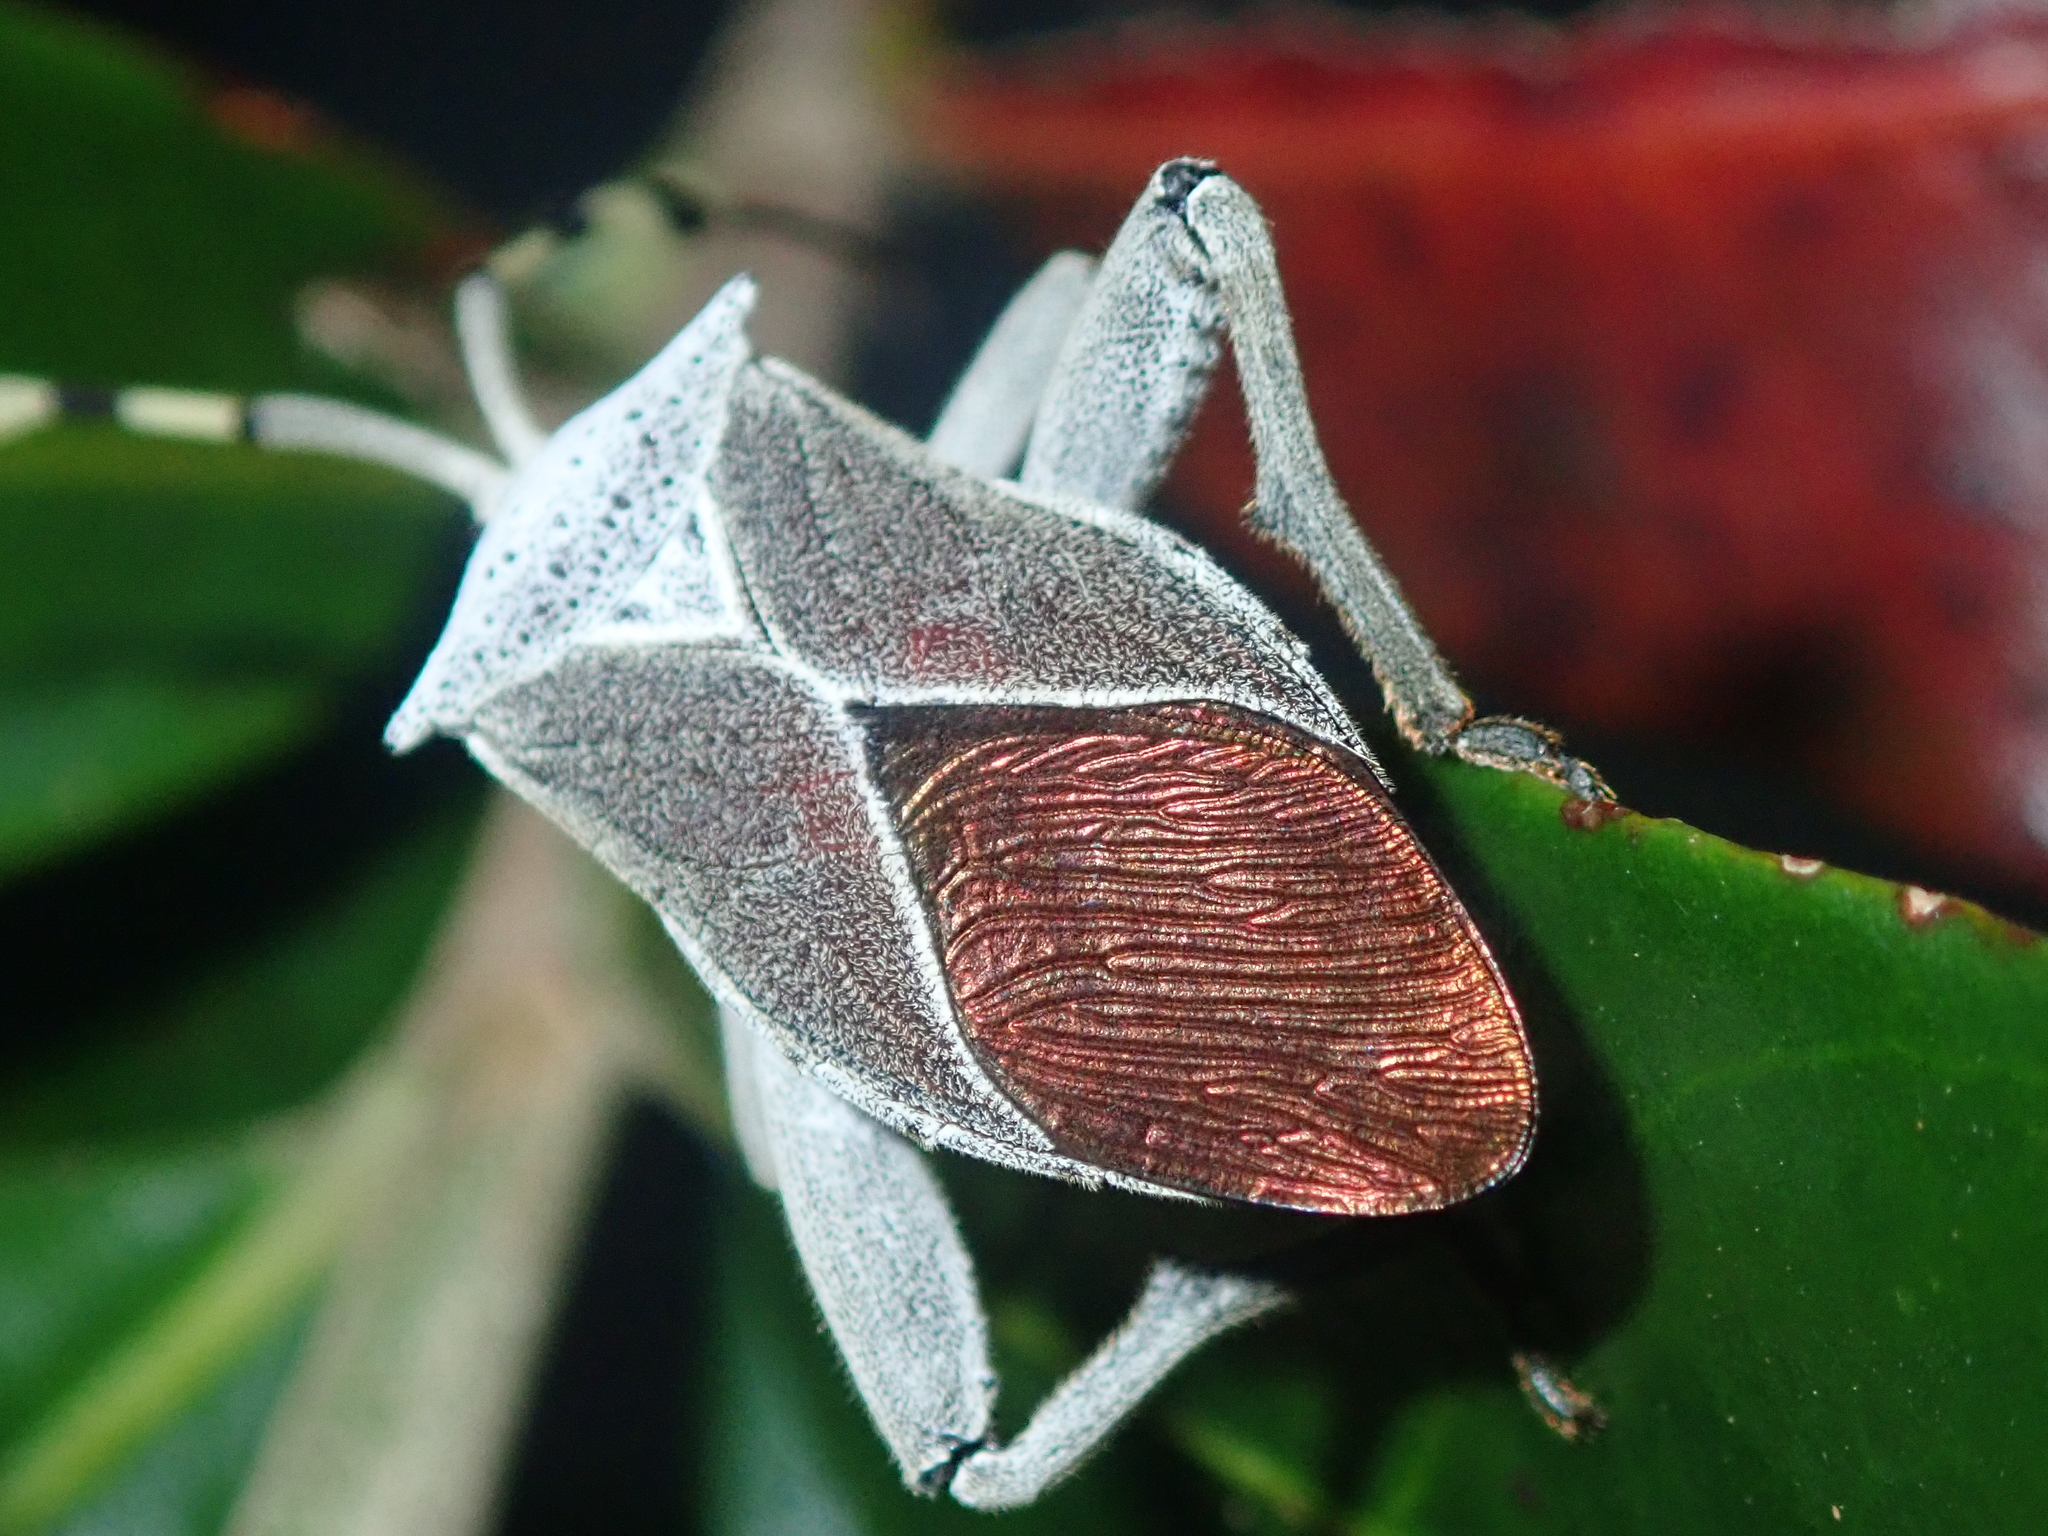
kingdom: Animalia
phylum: Arthropoda
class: Insecta
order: Hemiptera
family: Coreidae
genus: Molchina
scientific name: Molchina granulata
